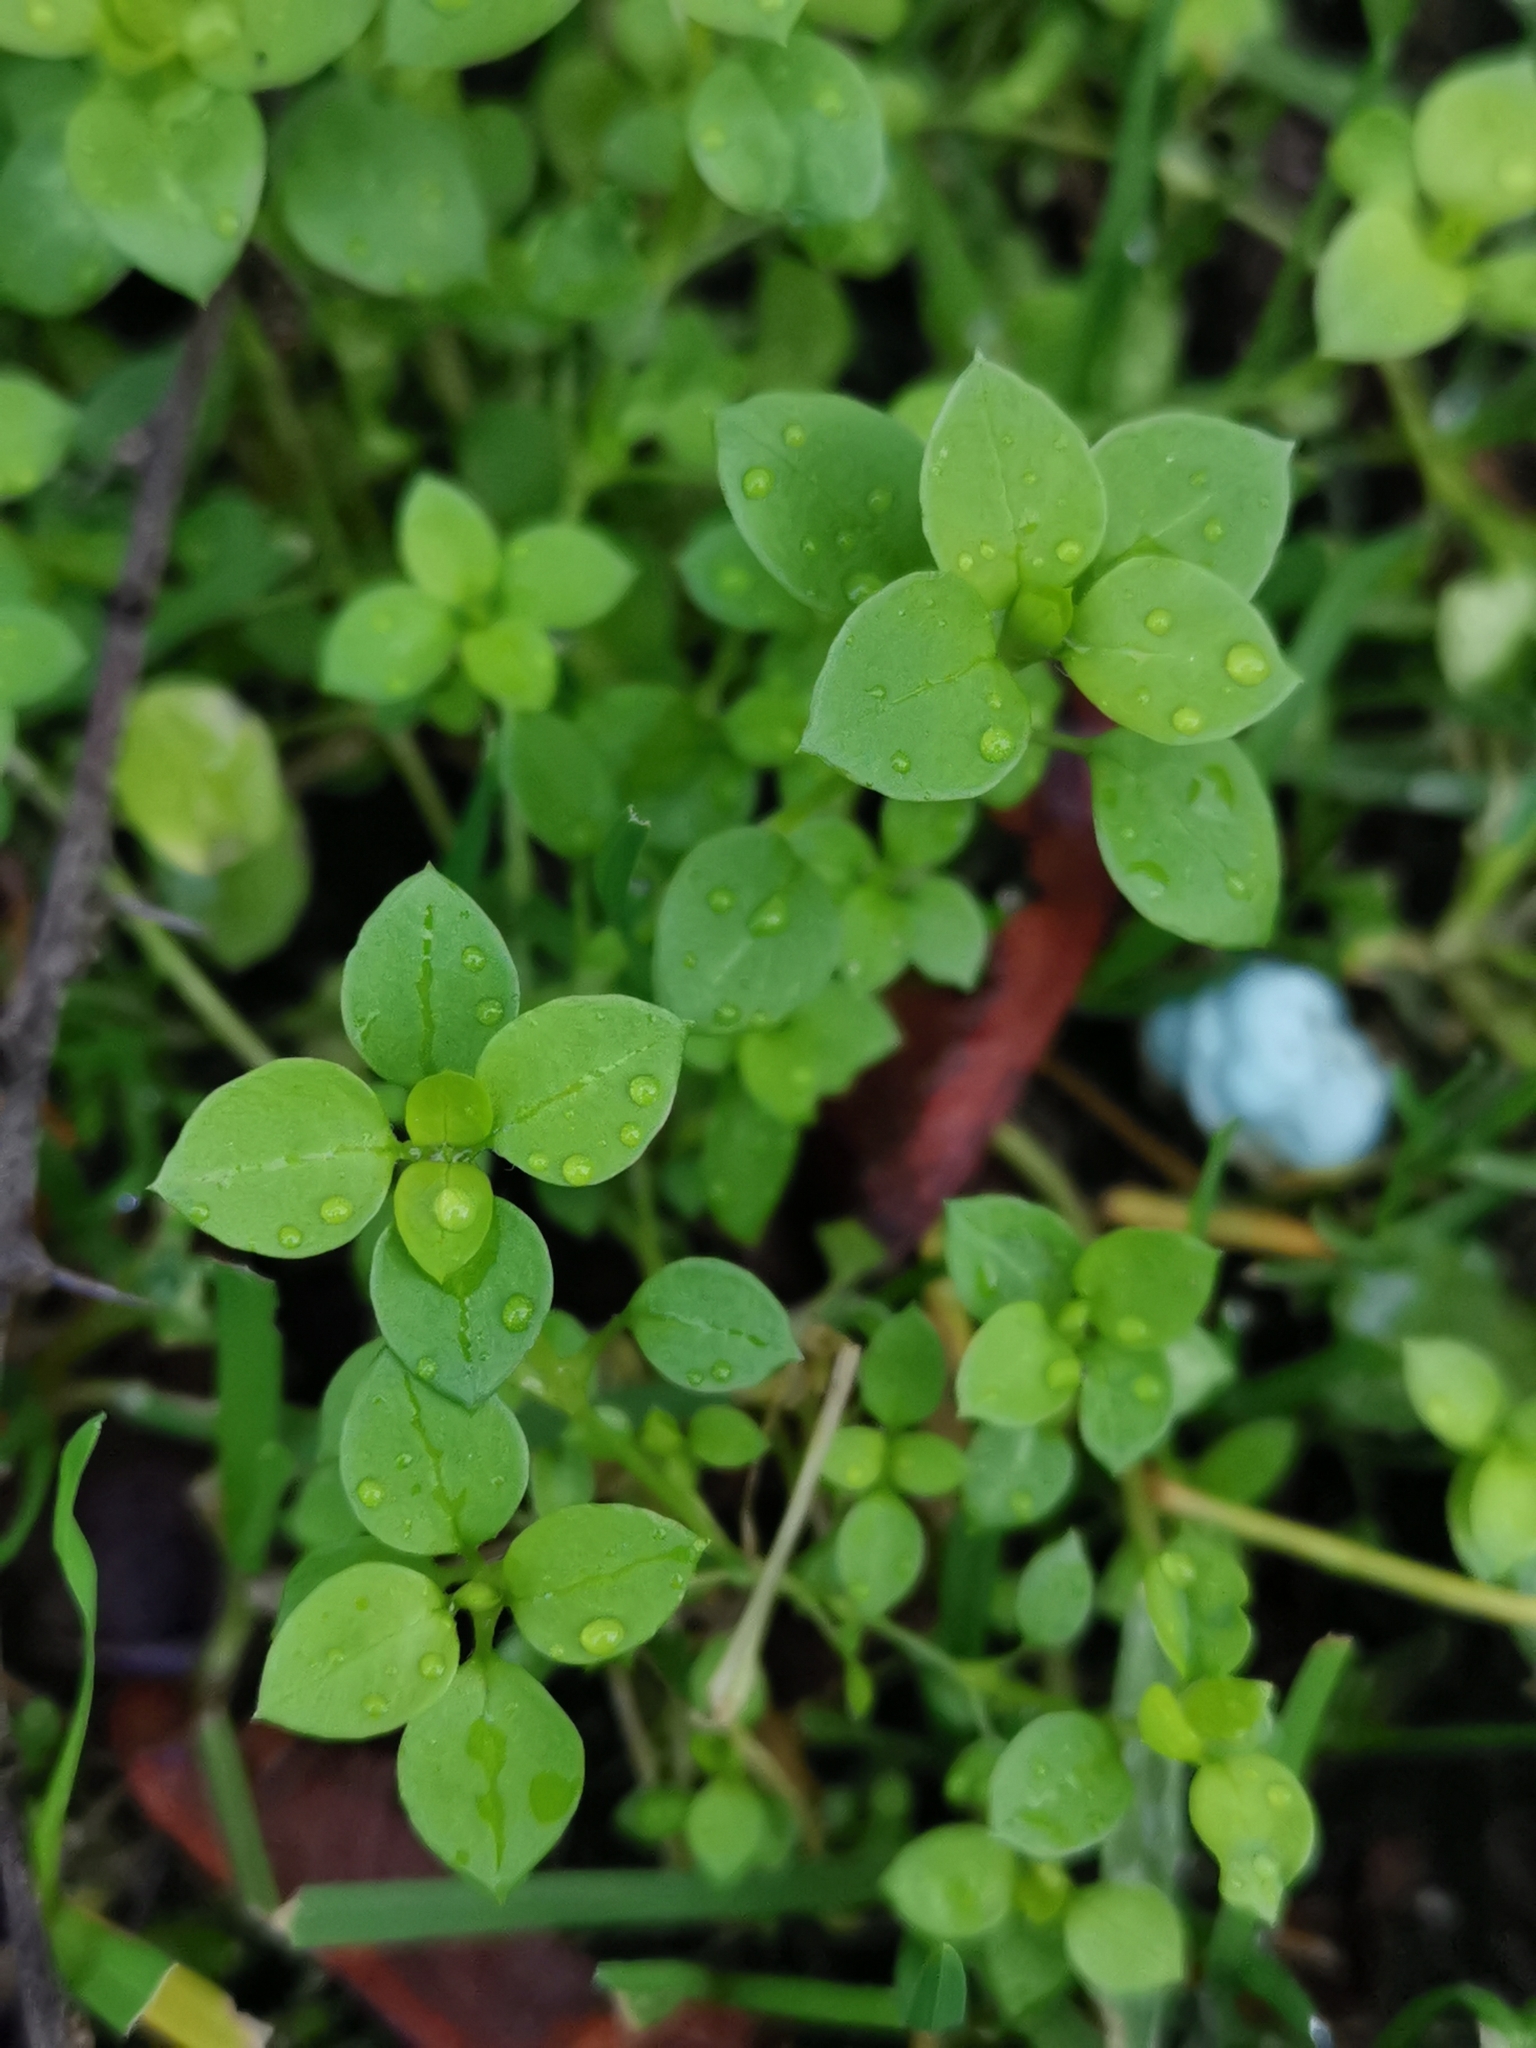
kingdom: Plantae
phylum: Tracheophyta
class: Magnoliopsida
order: Caryophyllales
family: Caryophyllaceae
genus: Stellaria
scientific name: Stellaria media
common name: Common chickweed
